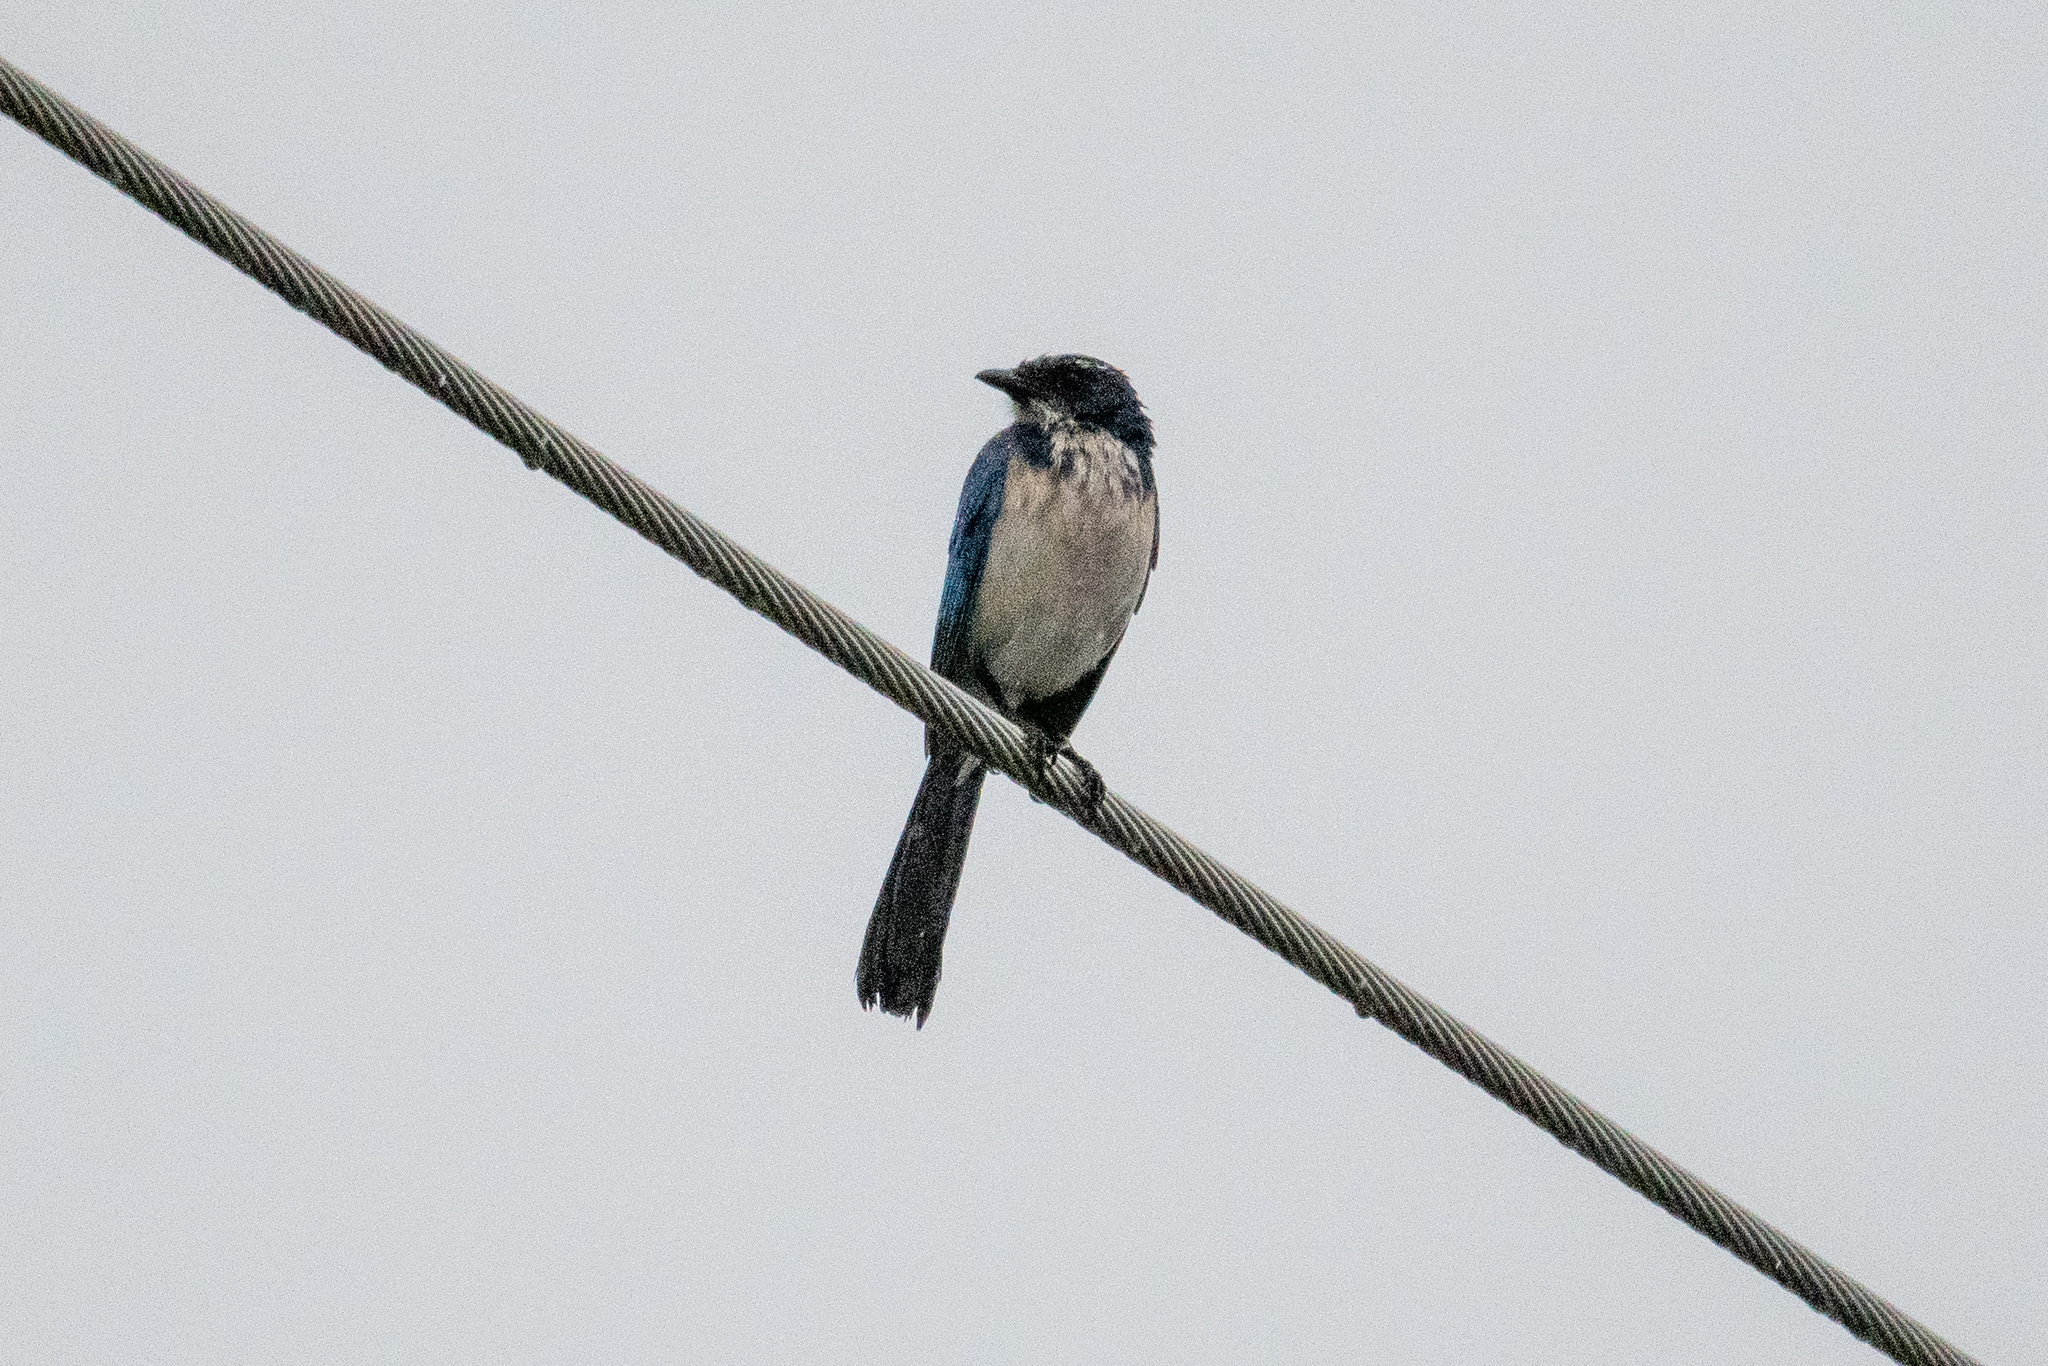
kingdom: Animalia
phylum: Chordata
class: Aves
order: Passeriformes
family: Corvidae
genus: Aphelocoma
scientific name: Aphelocoma californica
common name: California scrub-jay
